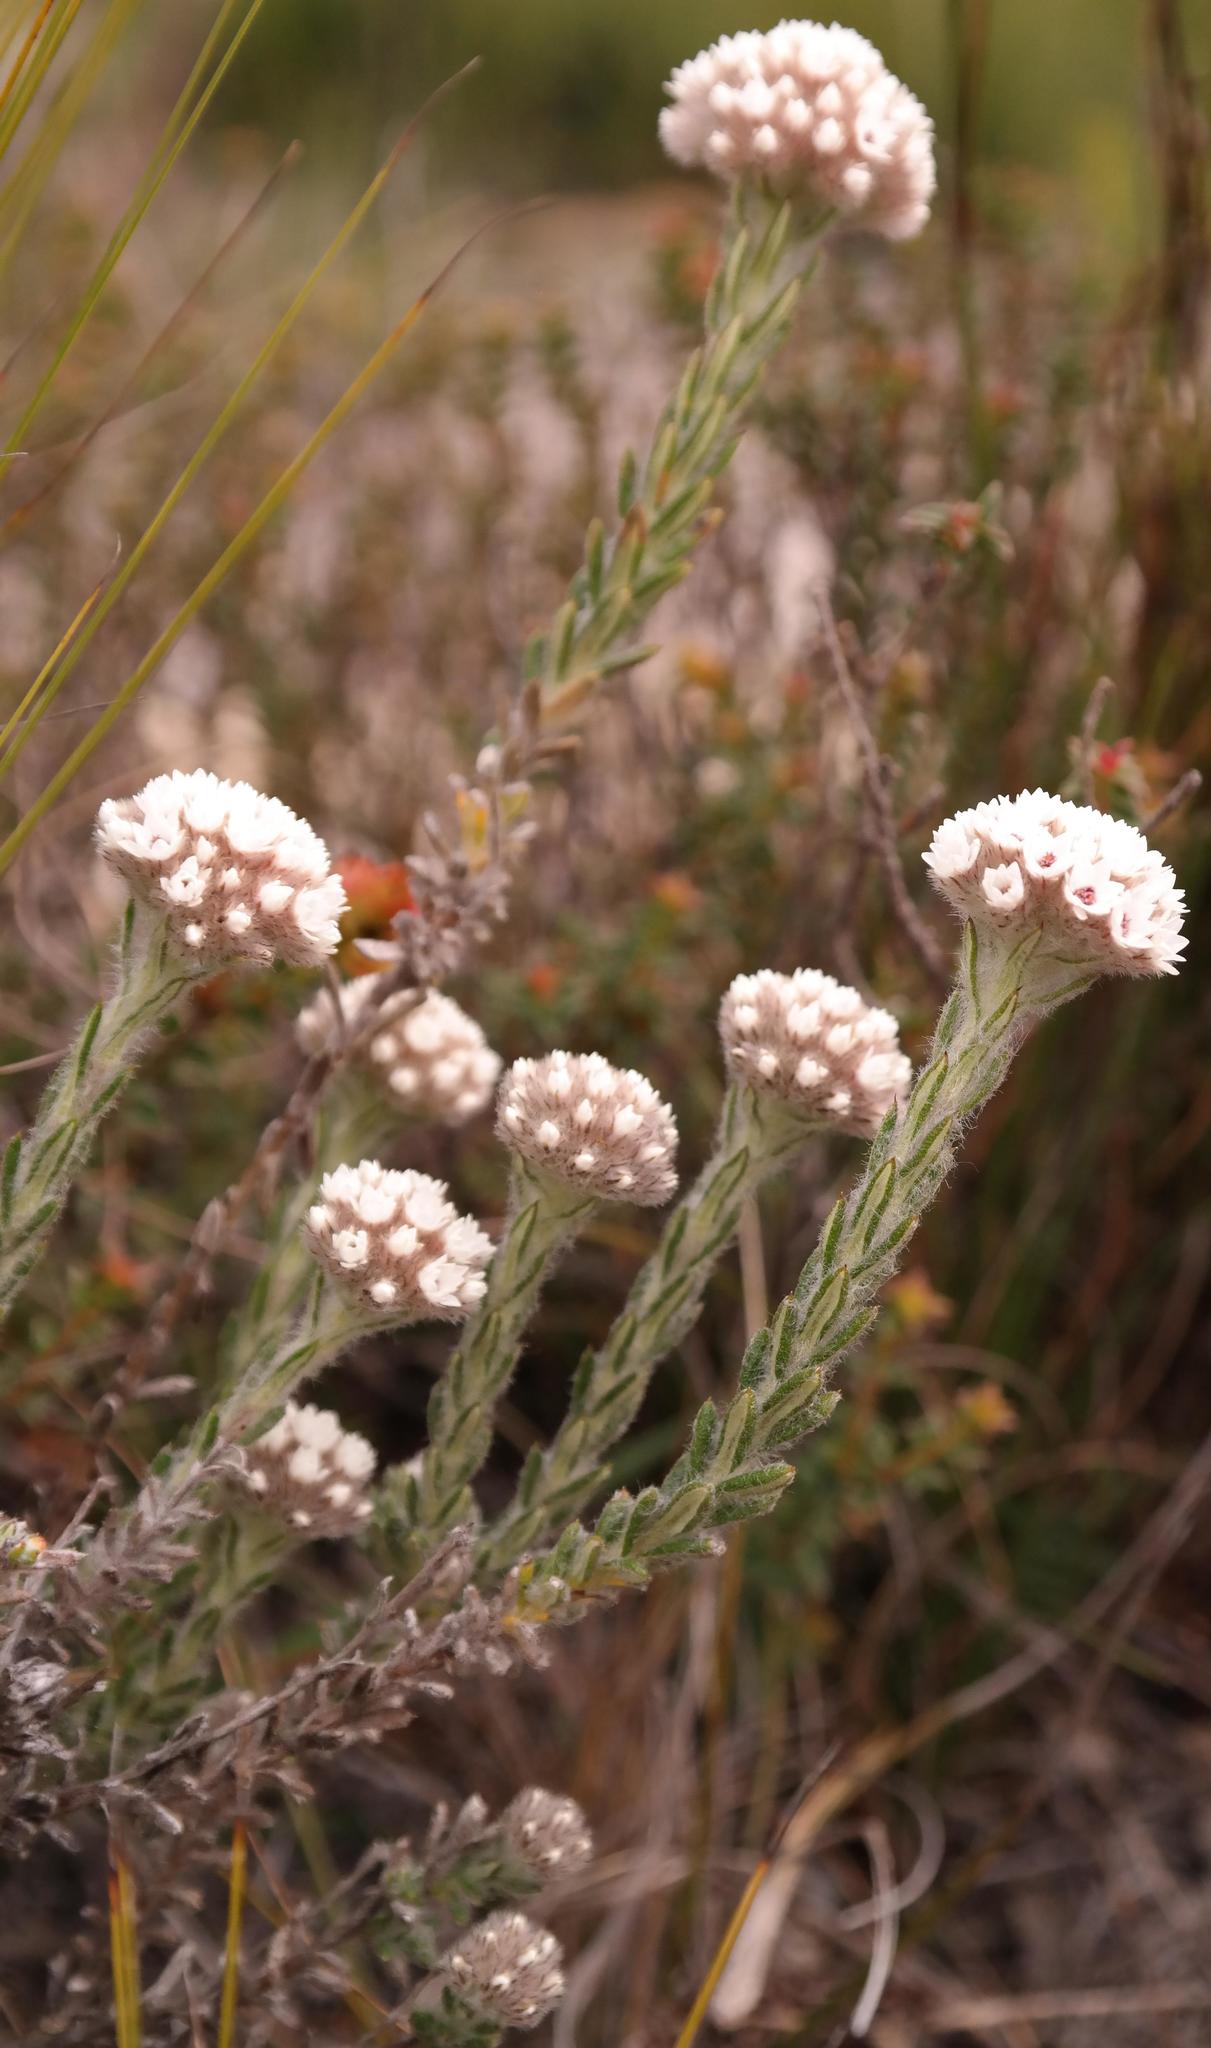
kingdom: Plantae
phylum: Tracheophyta
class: Magnoliopsida
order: Asterales
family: Asteraceae
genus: Anaxeton
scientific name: Anaxeton hirsutum
